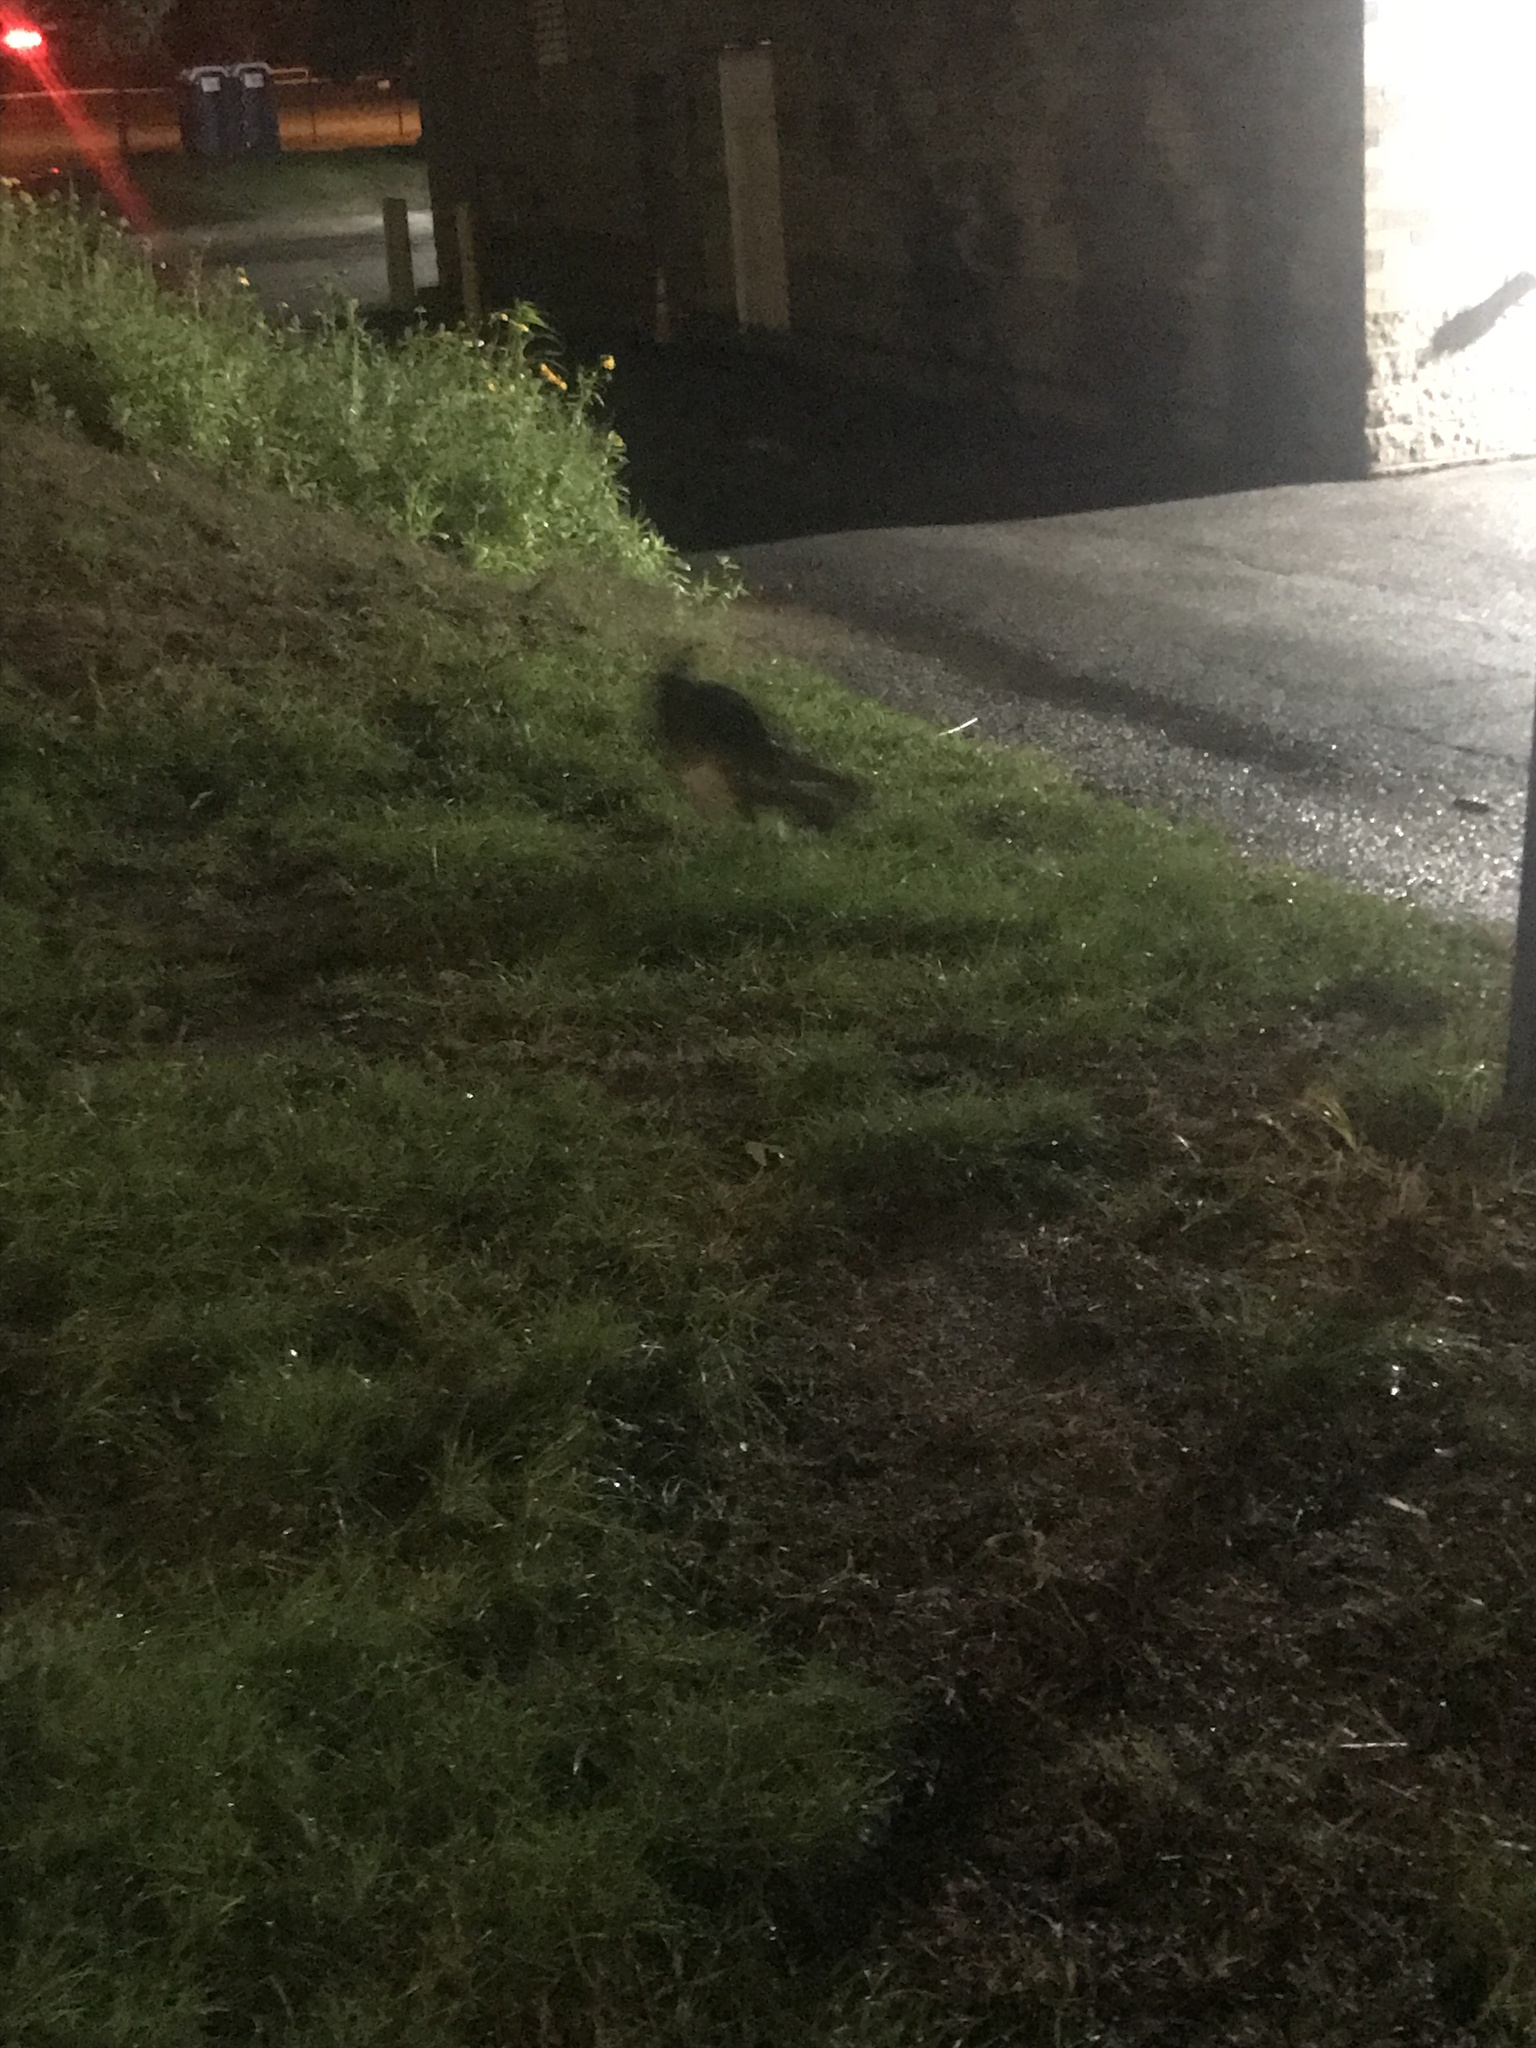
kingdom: Animalia
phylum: Chordata
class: Aves
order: Galliformes
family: Phasianidae
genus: Meleagris
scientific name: Meleagris gallopavo
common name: Wild turkey
